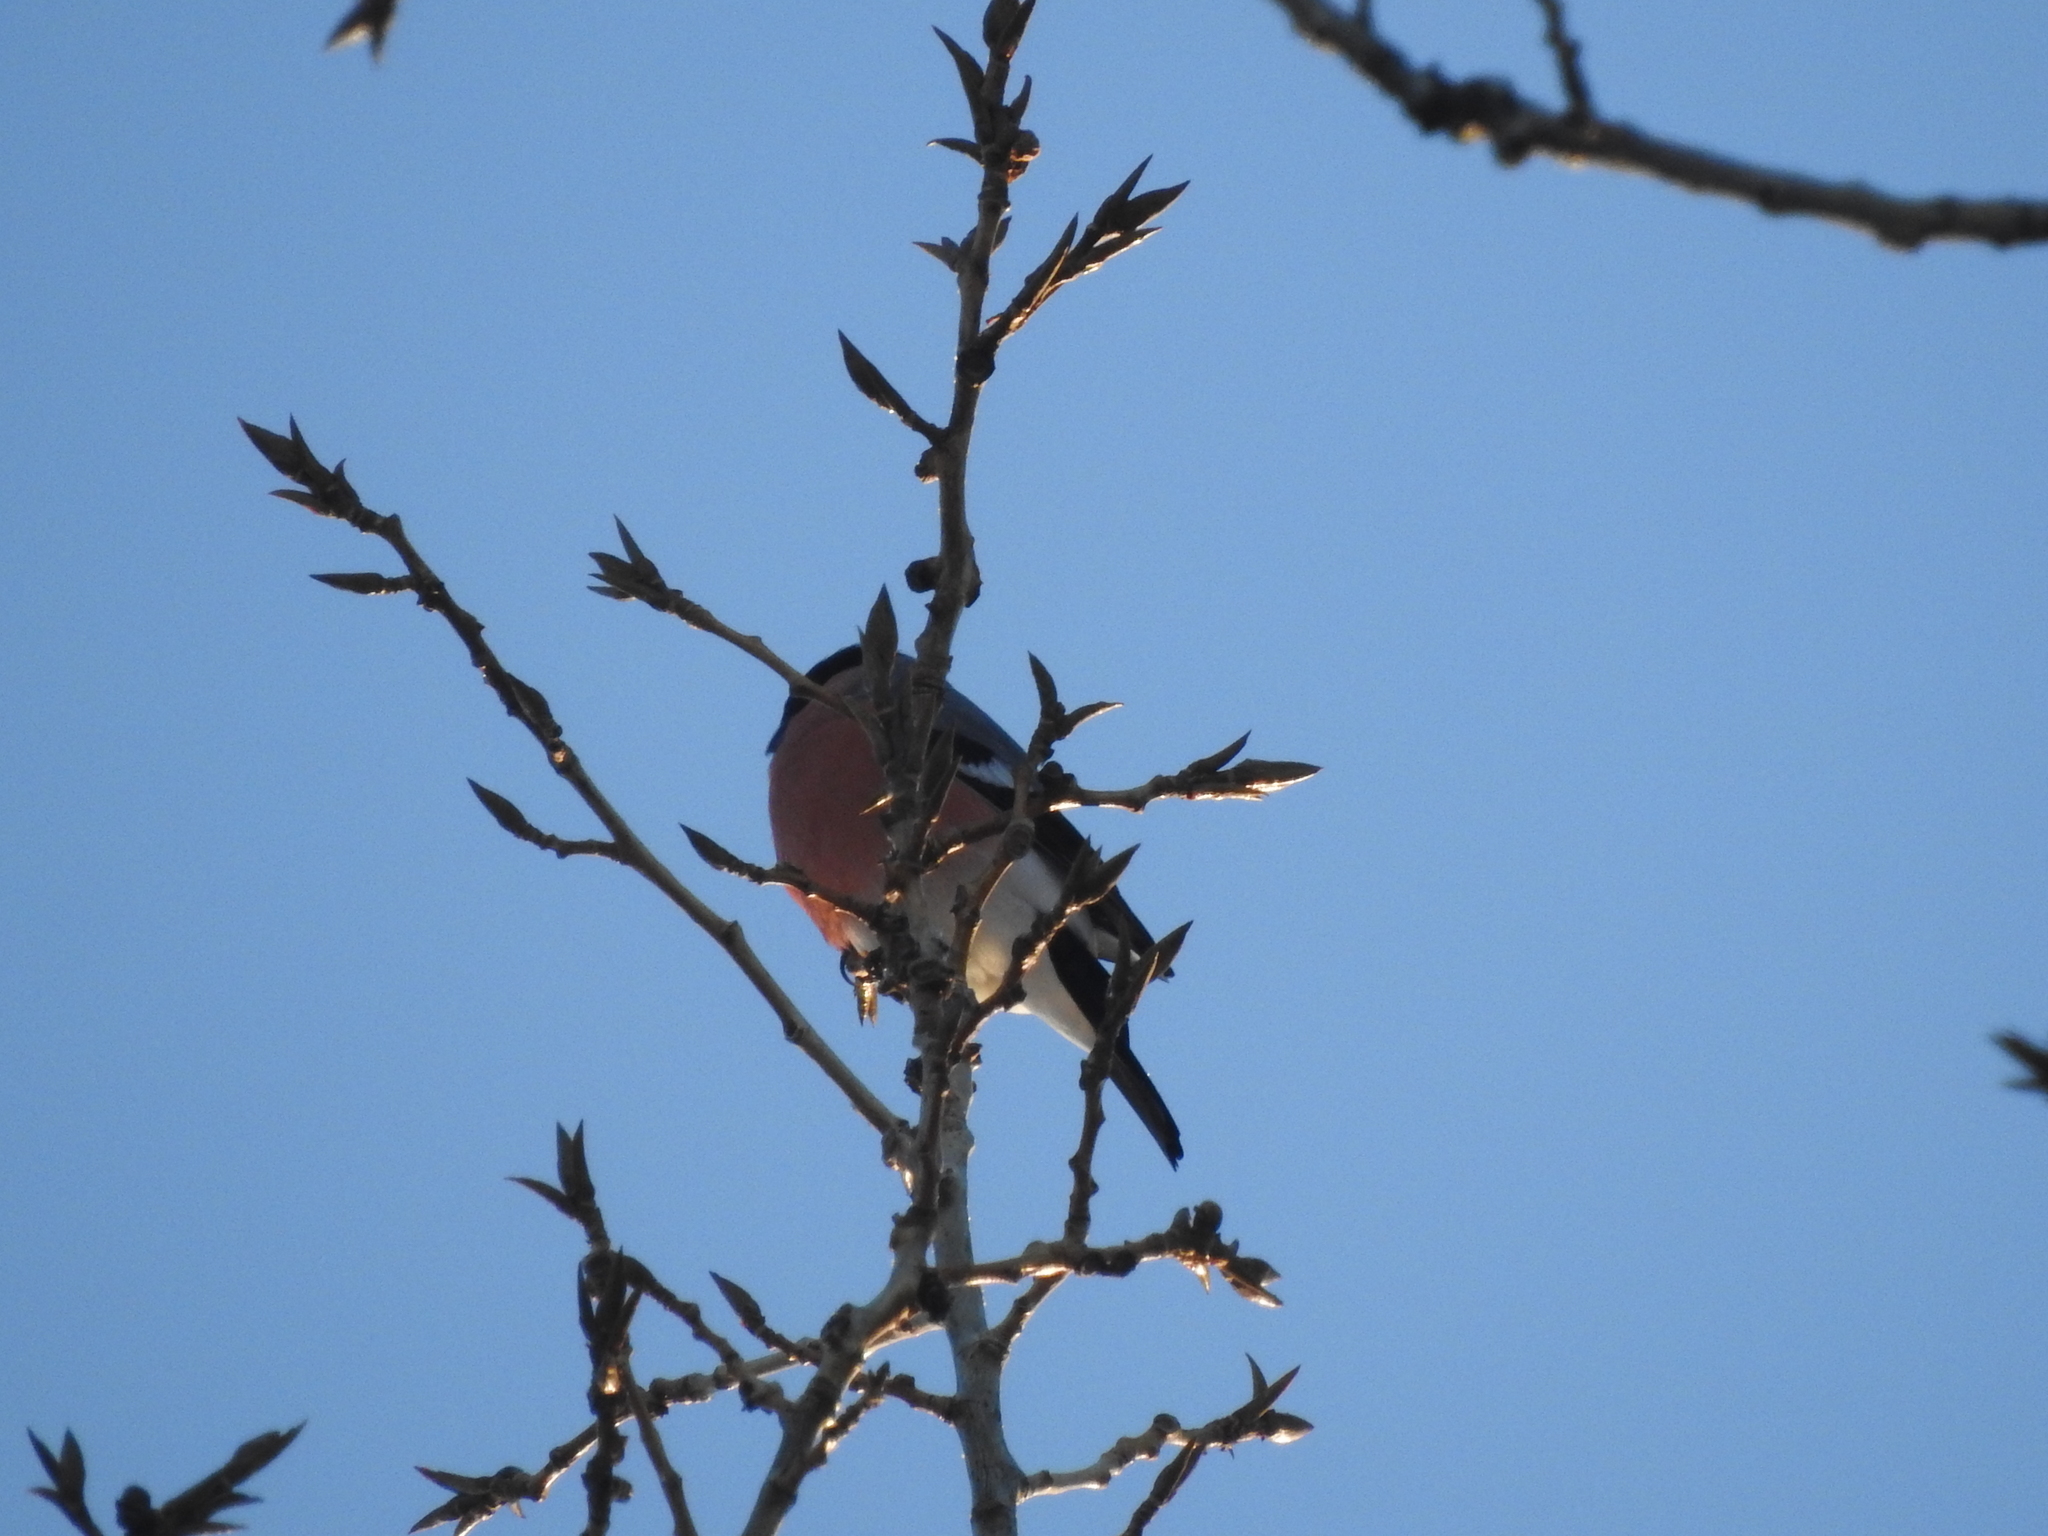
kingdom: Animalia
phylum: Chordata
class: Aves
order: Passeriformes
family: Fringillidae
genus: Pyrrhula
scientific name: Pyrrhula pyrrhula
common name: Eurasian bullfinch
